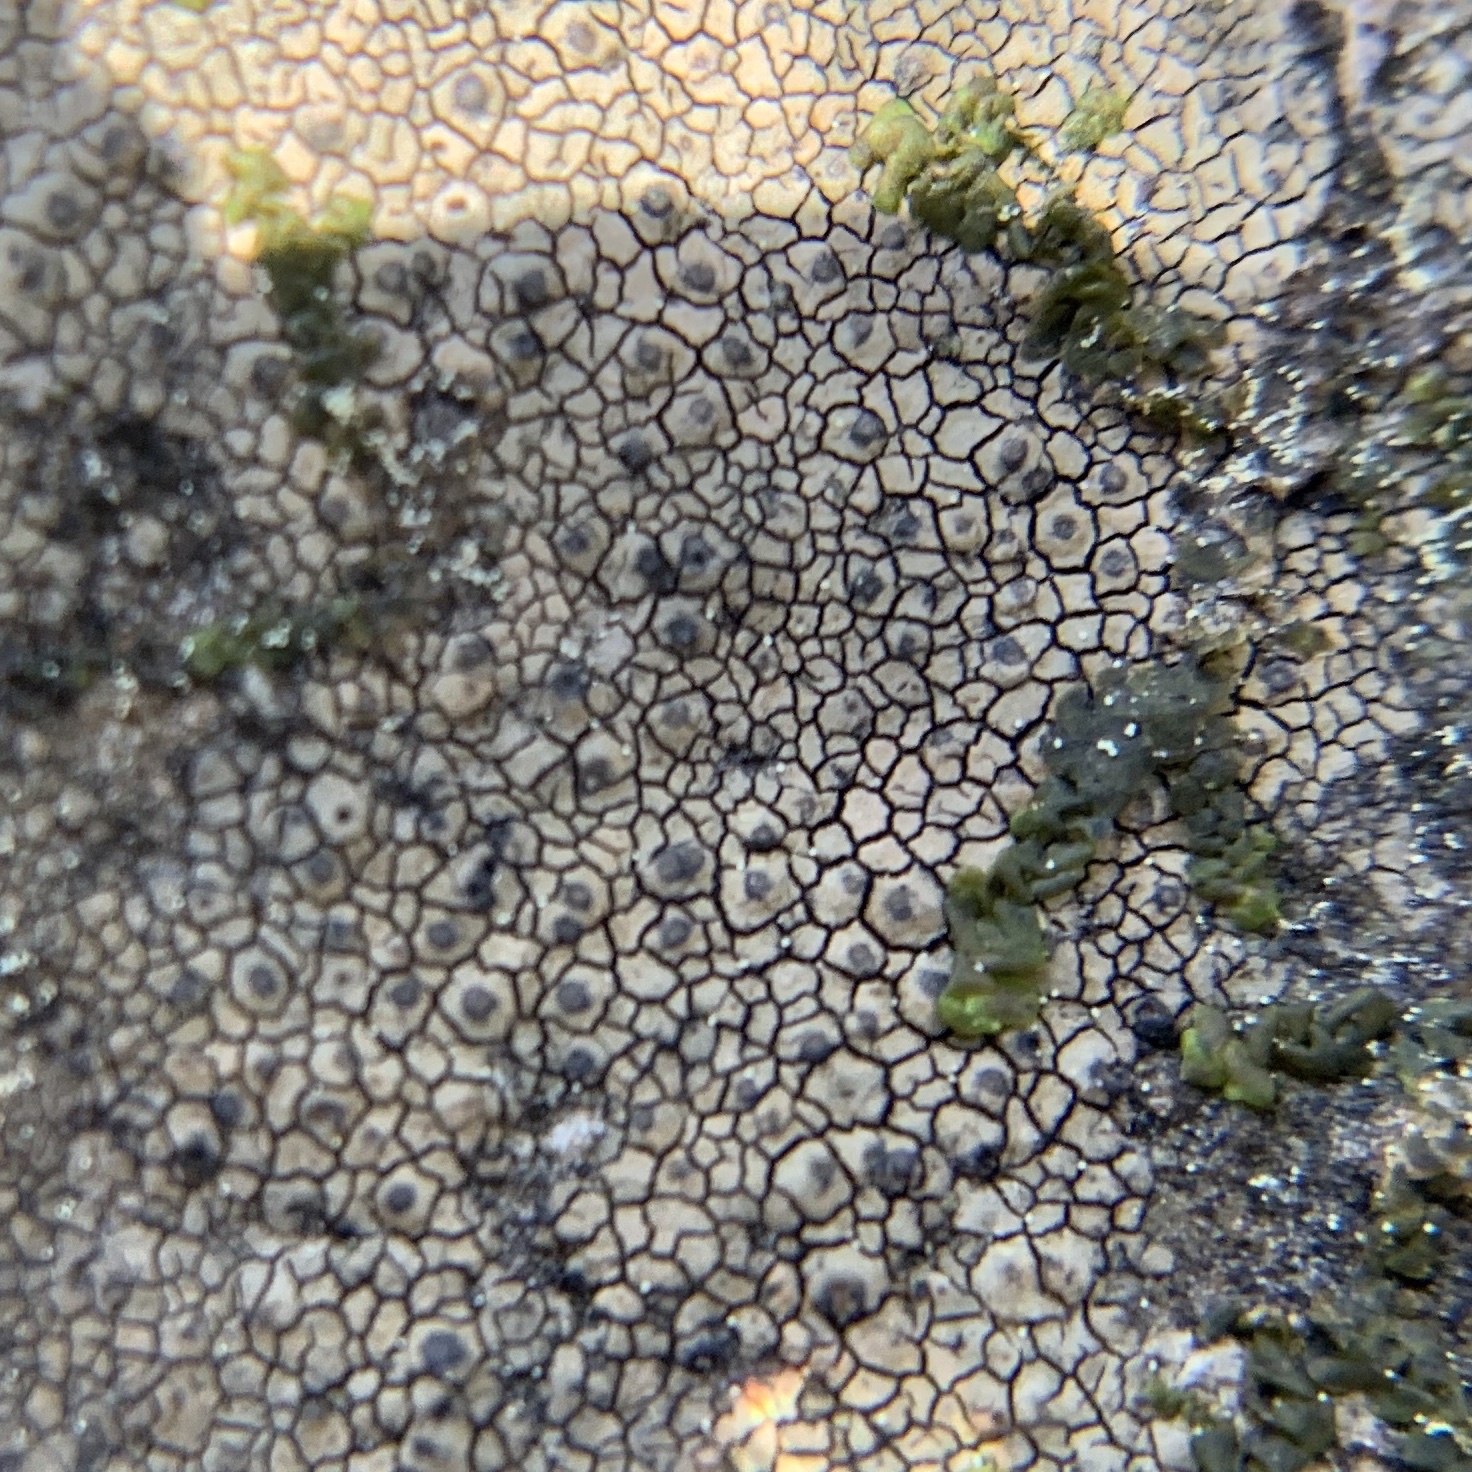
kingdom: Fungi
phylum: Ascomycota
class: Eurotiomycetes
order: Verrucariales
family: Verrucariaceae
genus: Willeya
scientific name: Willeya diffractella
